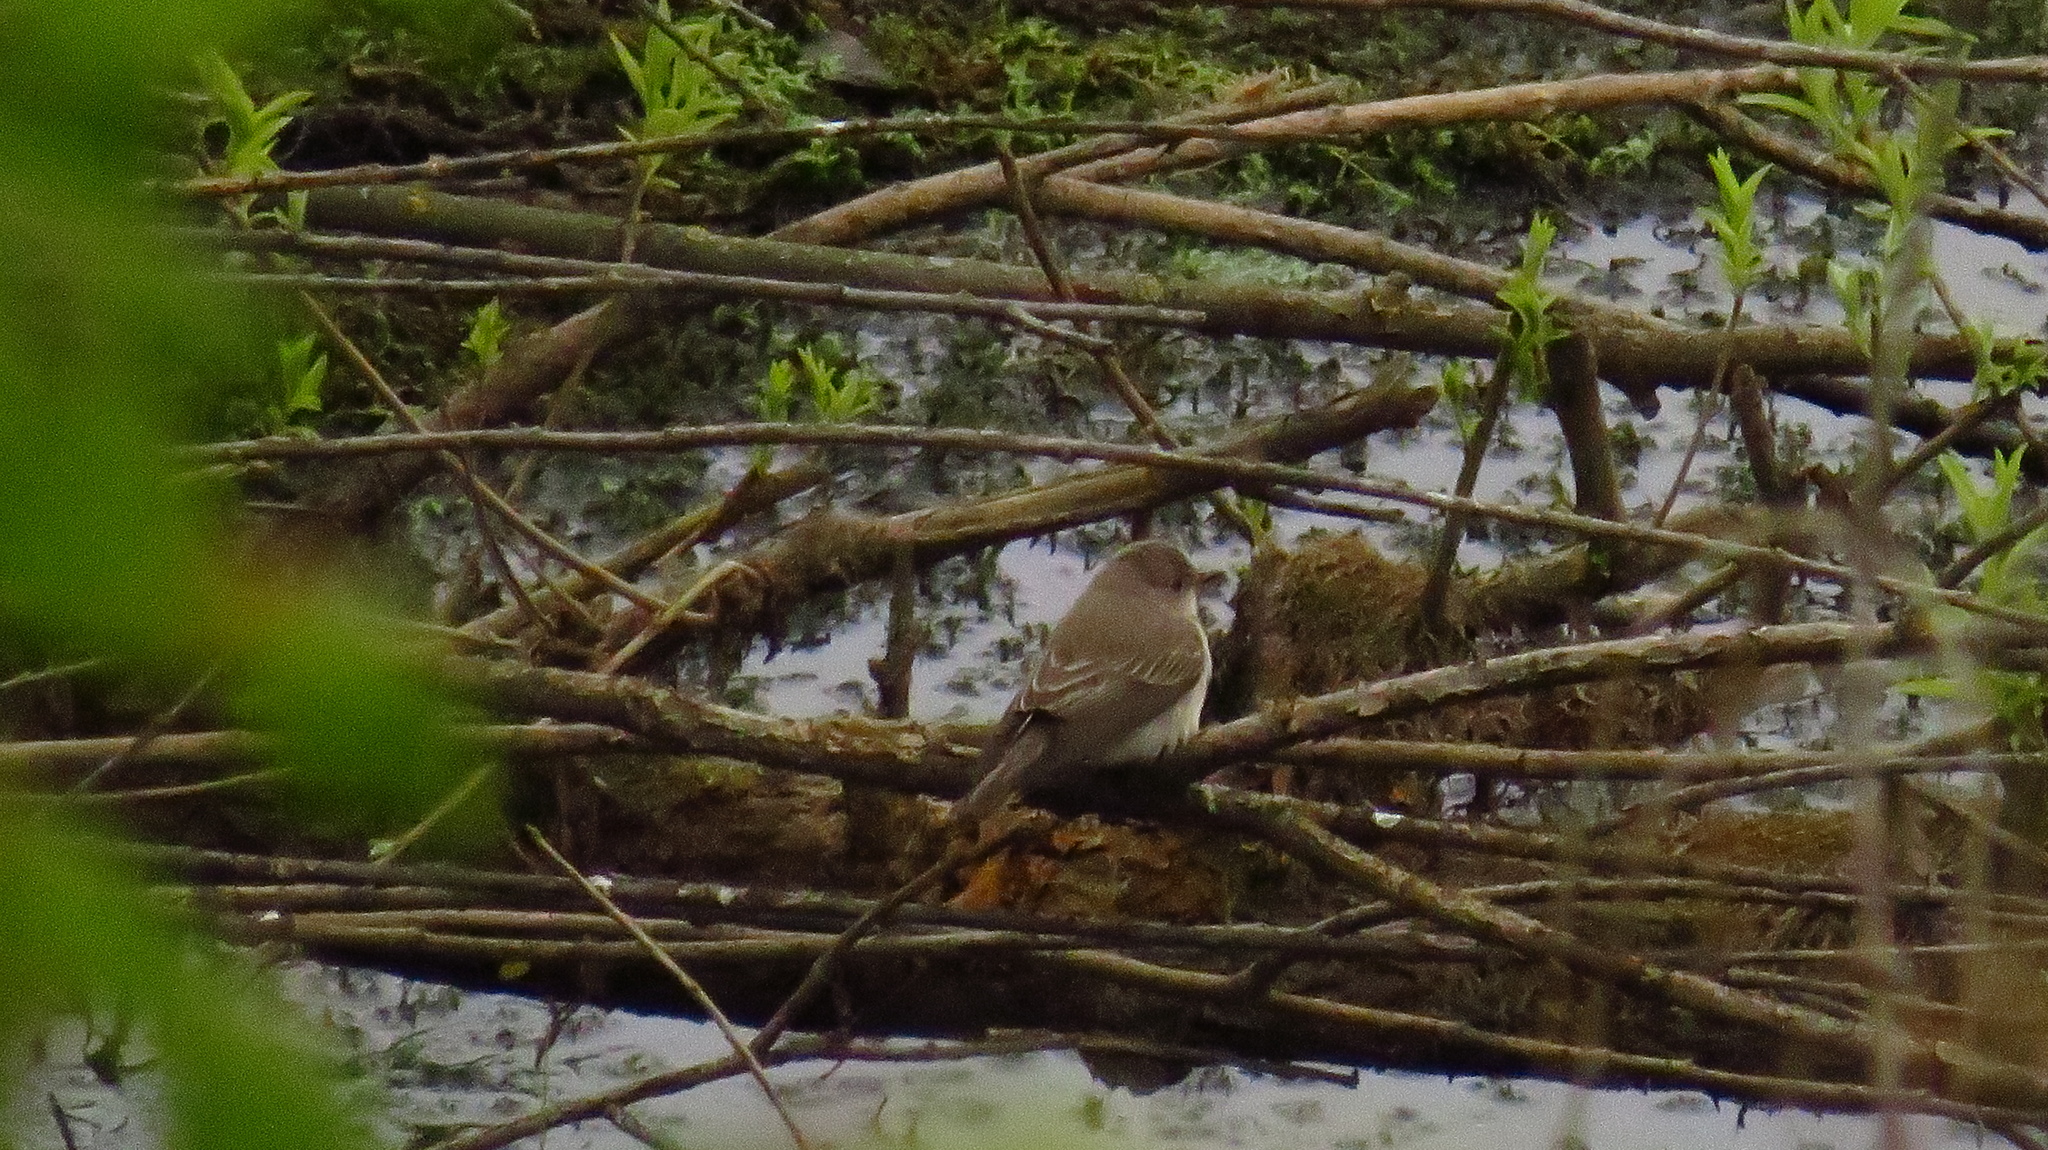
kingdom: Animalia
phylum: Chordata
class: Aves
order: Passeriformes
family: Muscicapidae
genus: Muscicapa
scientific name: Muscicapa striata
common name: Spotted flycatcher
